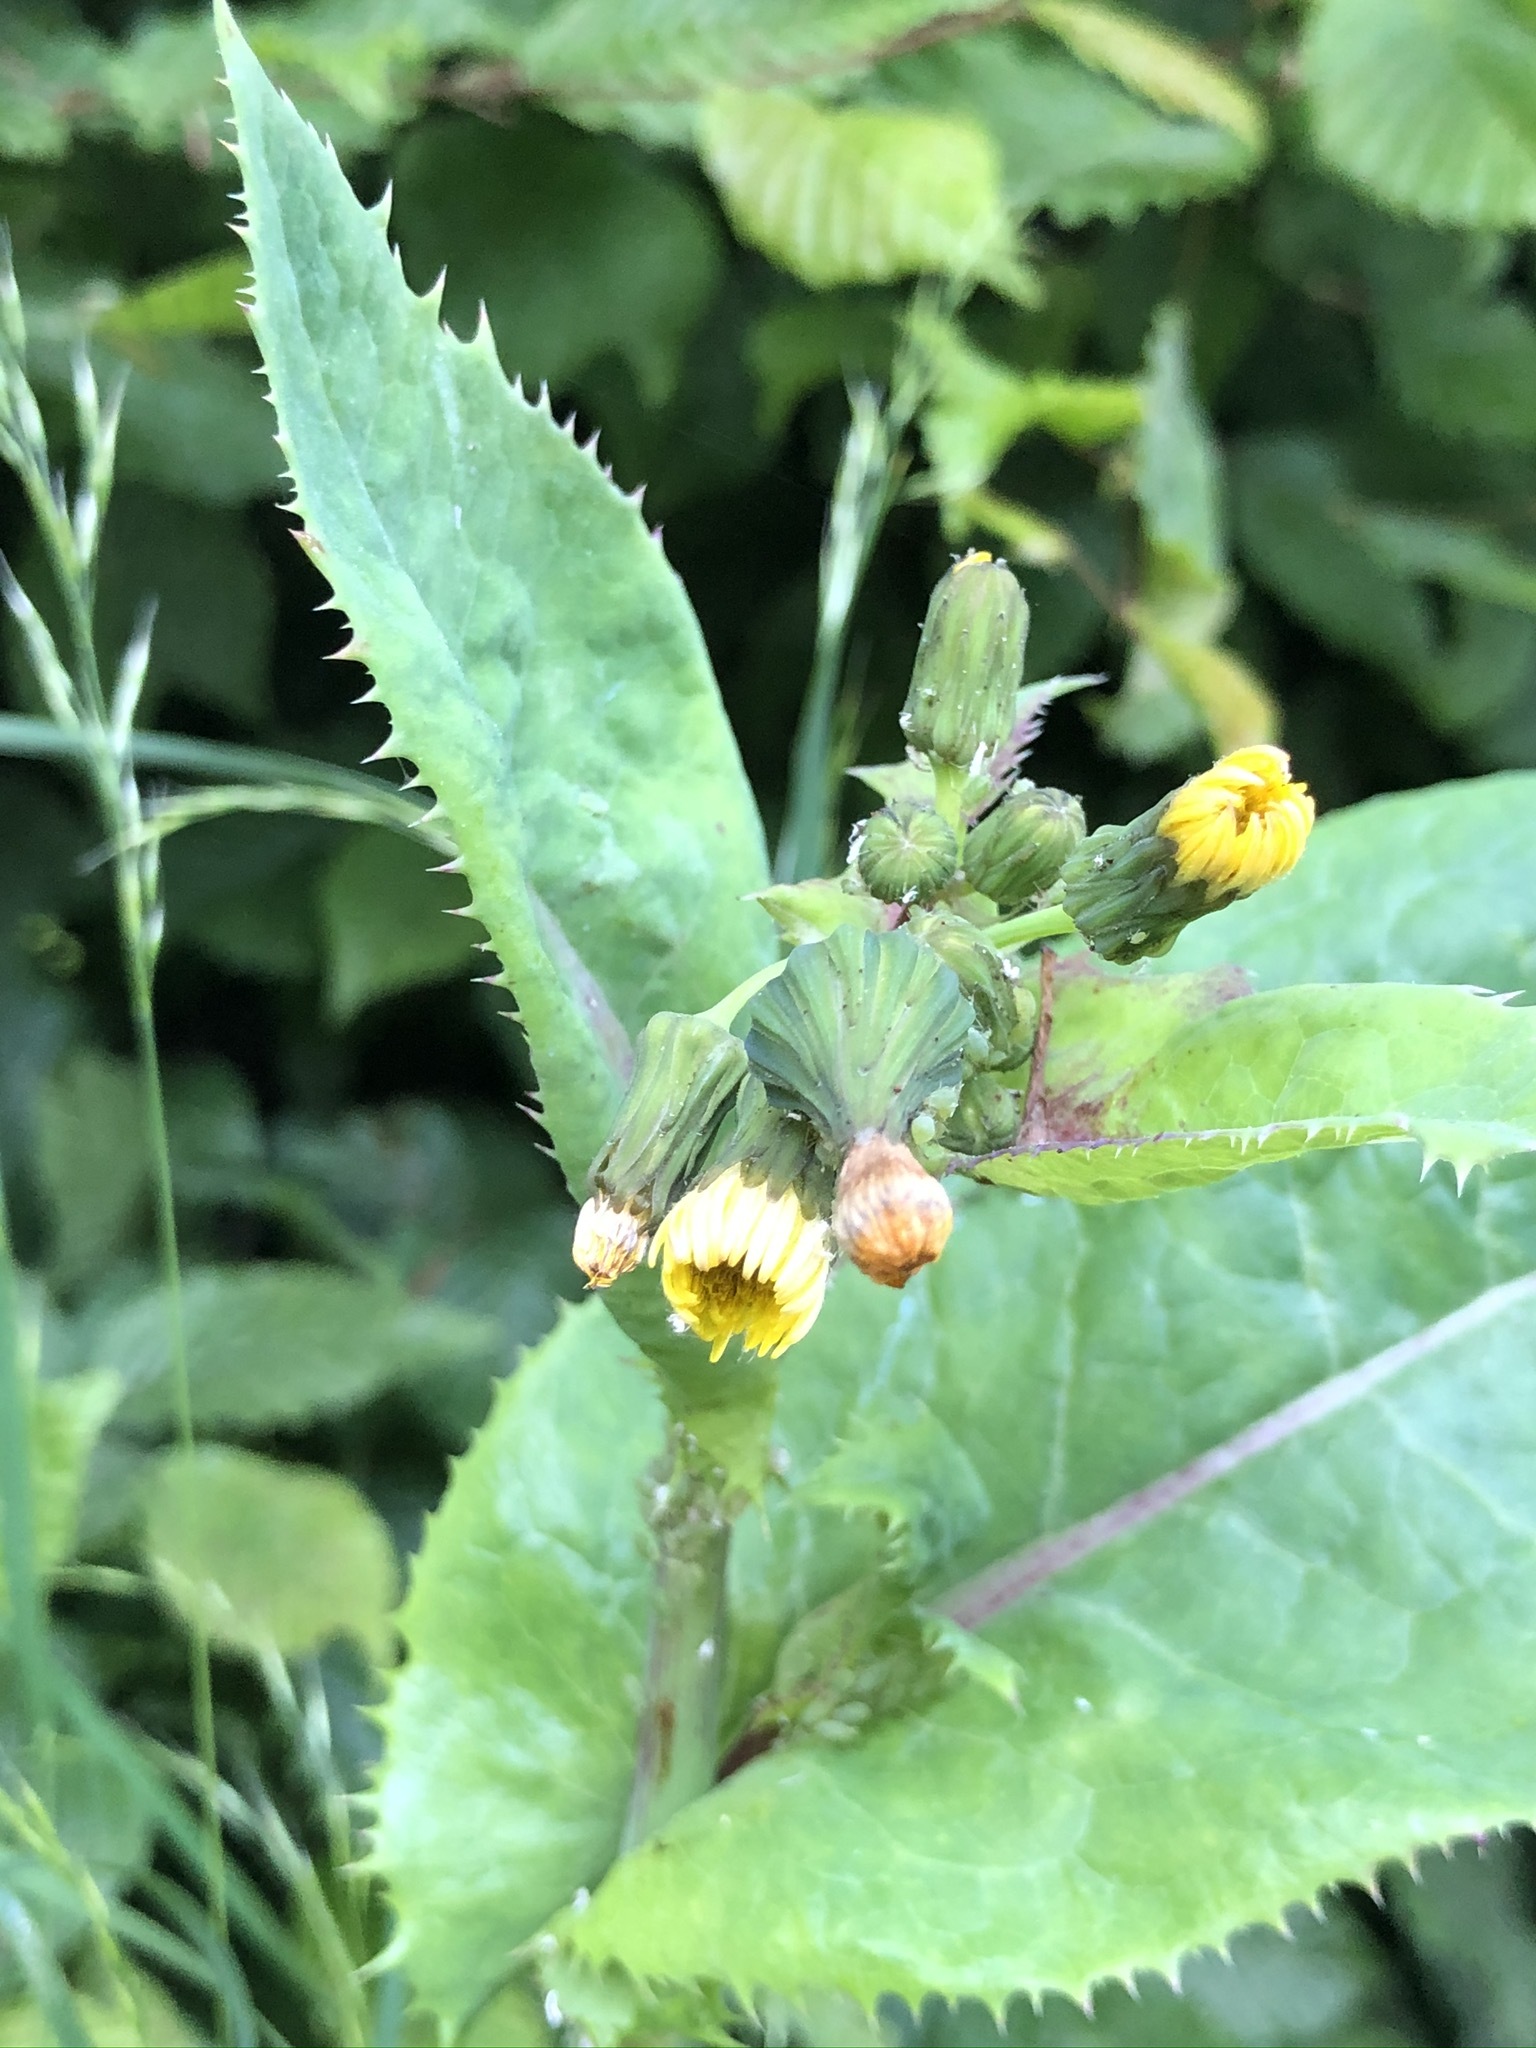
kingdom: Plantae
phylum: Tracheophyta
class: Magnoliopsida
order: Asterales
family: Asteraceae
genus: Sonchus
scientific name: Sonchus oleraceus
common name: Common sowthistle
